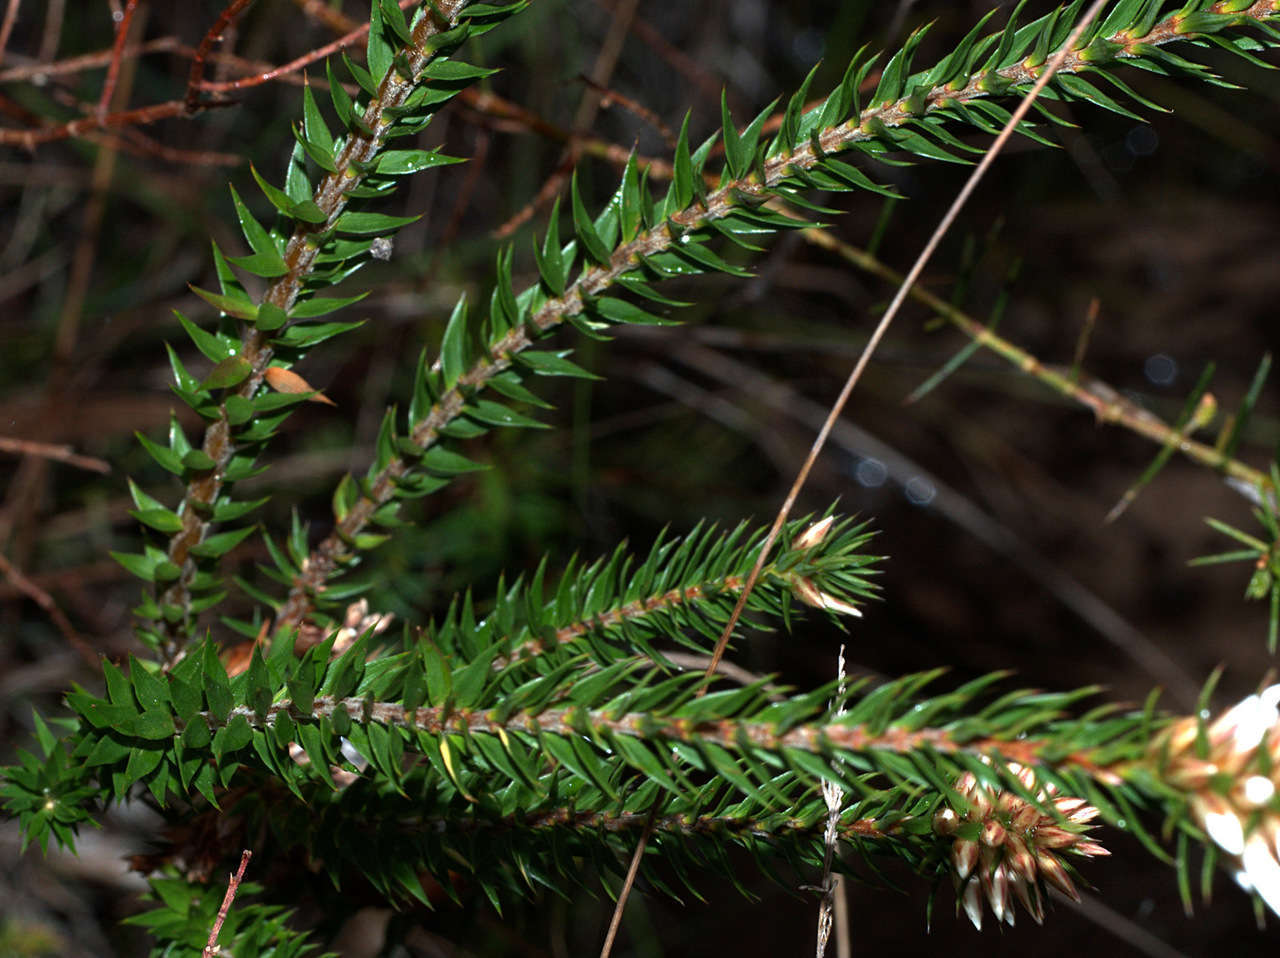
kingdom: Plantae
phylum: Tracheophyta
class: Magnoliopsida
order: Ericales
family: Ericaceae
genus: Epacris
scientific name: Epacris lanuginosa
